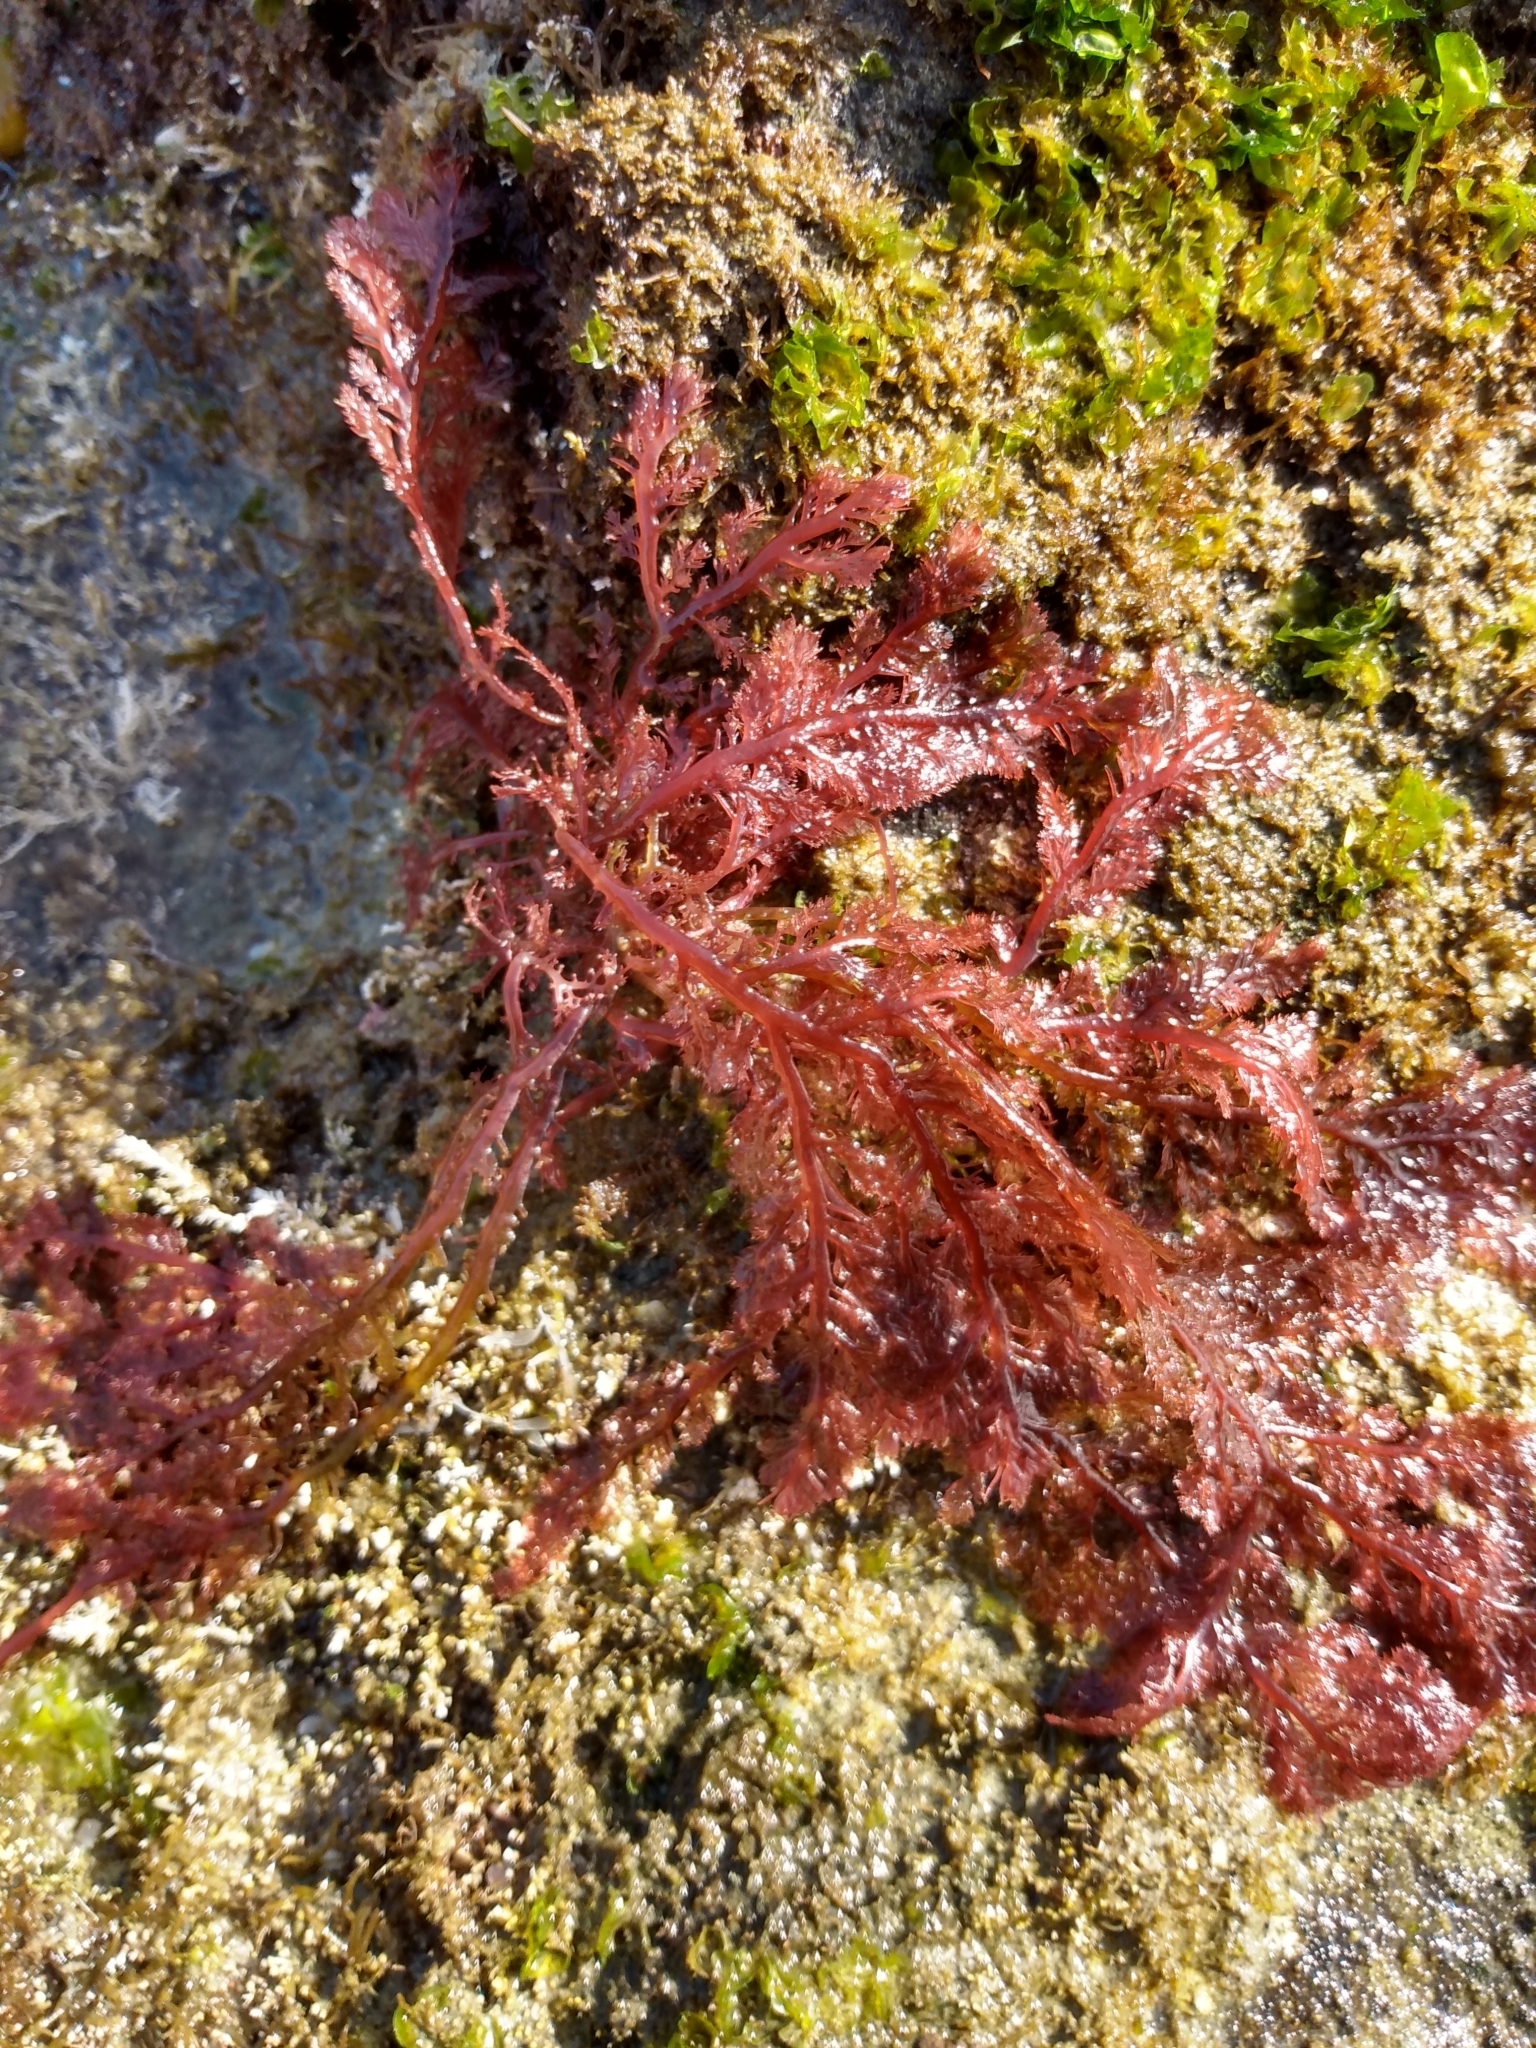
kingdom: Plantae
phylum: Rhodophyta
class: Florideophyceae
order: Plocamiales
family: Plocamiaceae
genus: Plocamium
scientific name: Plocamium cartilagineum
